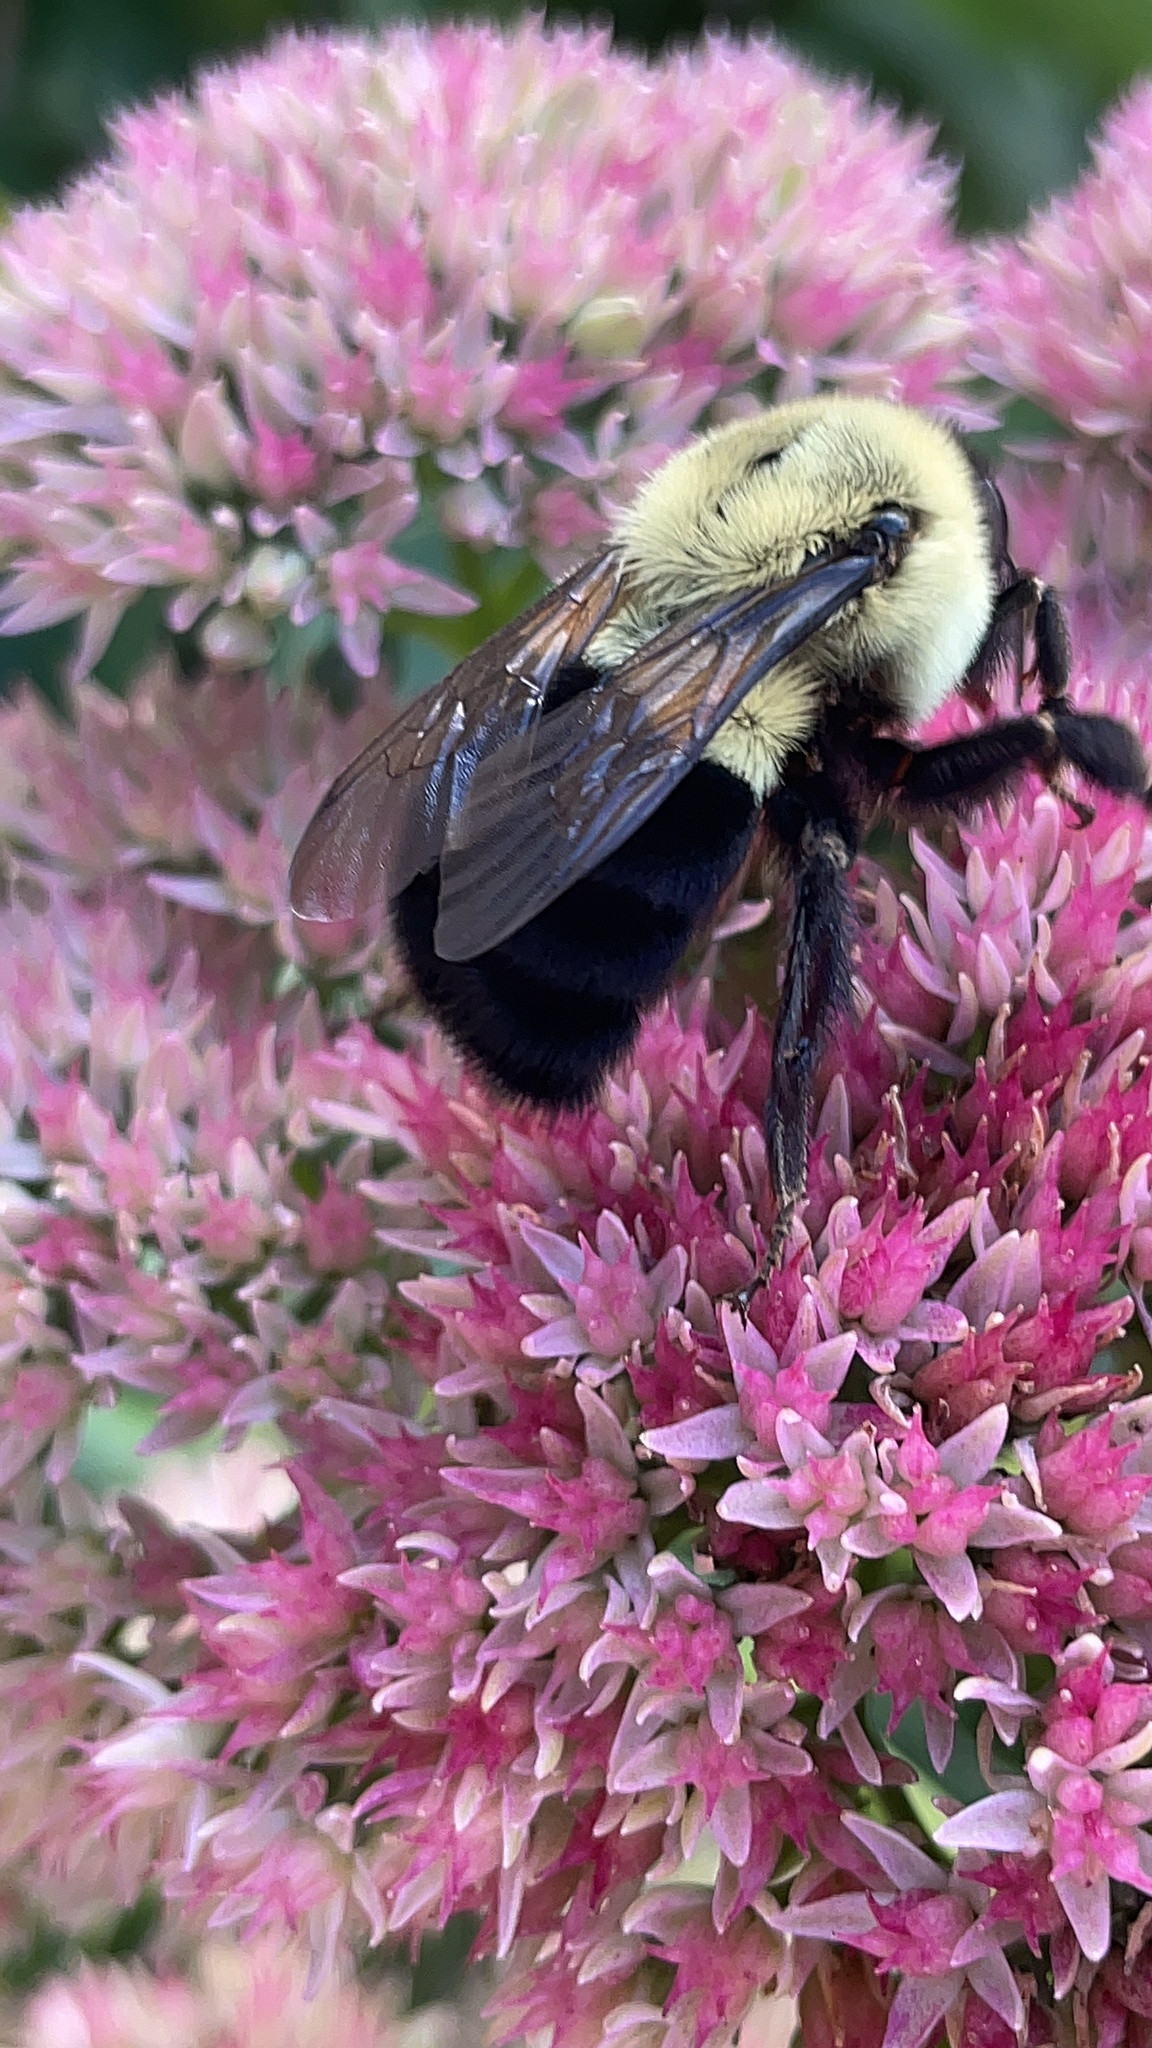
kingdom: Animalia
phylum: Arthropoda
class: Insecta
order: Hymenoptera
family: Apidae
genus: Bombus
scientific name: Bombus impatiens
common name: Common eastern bumble bee
